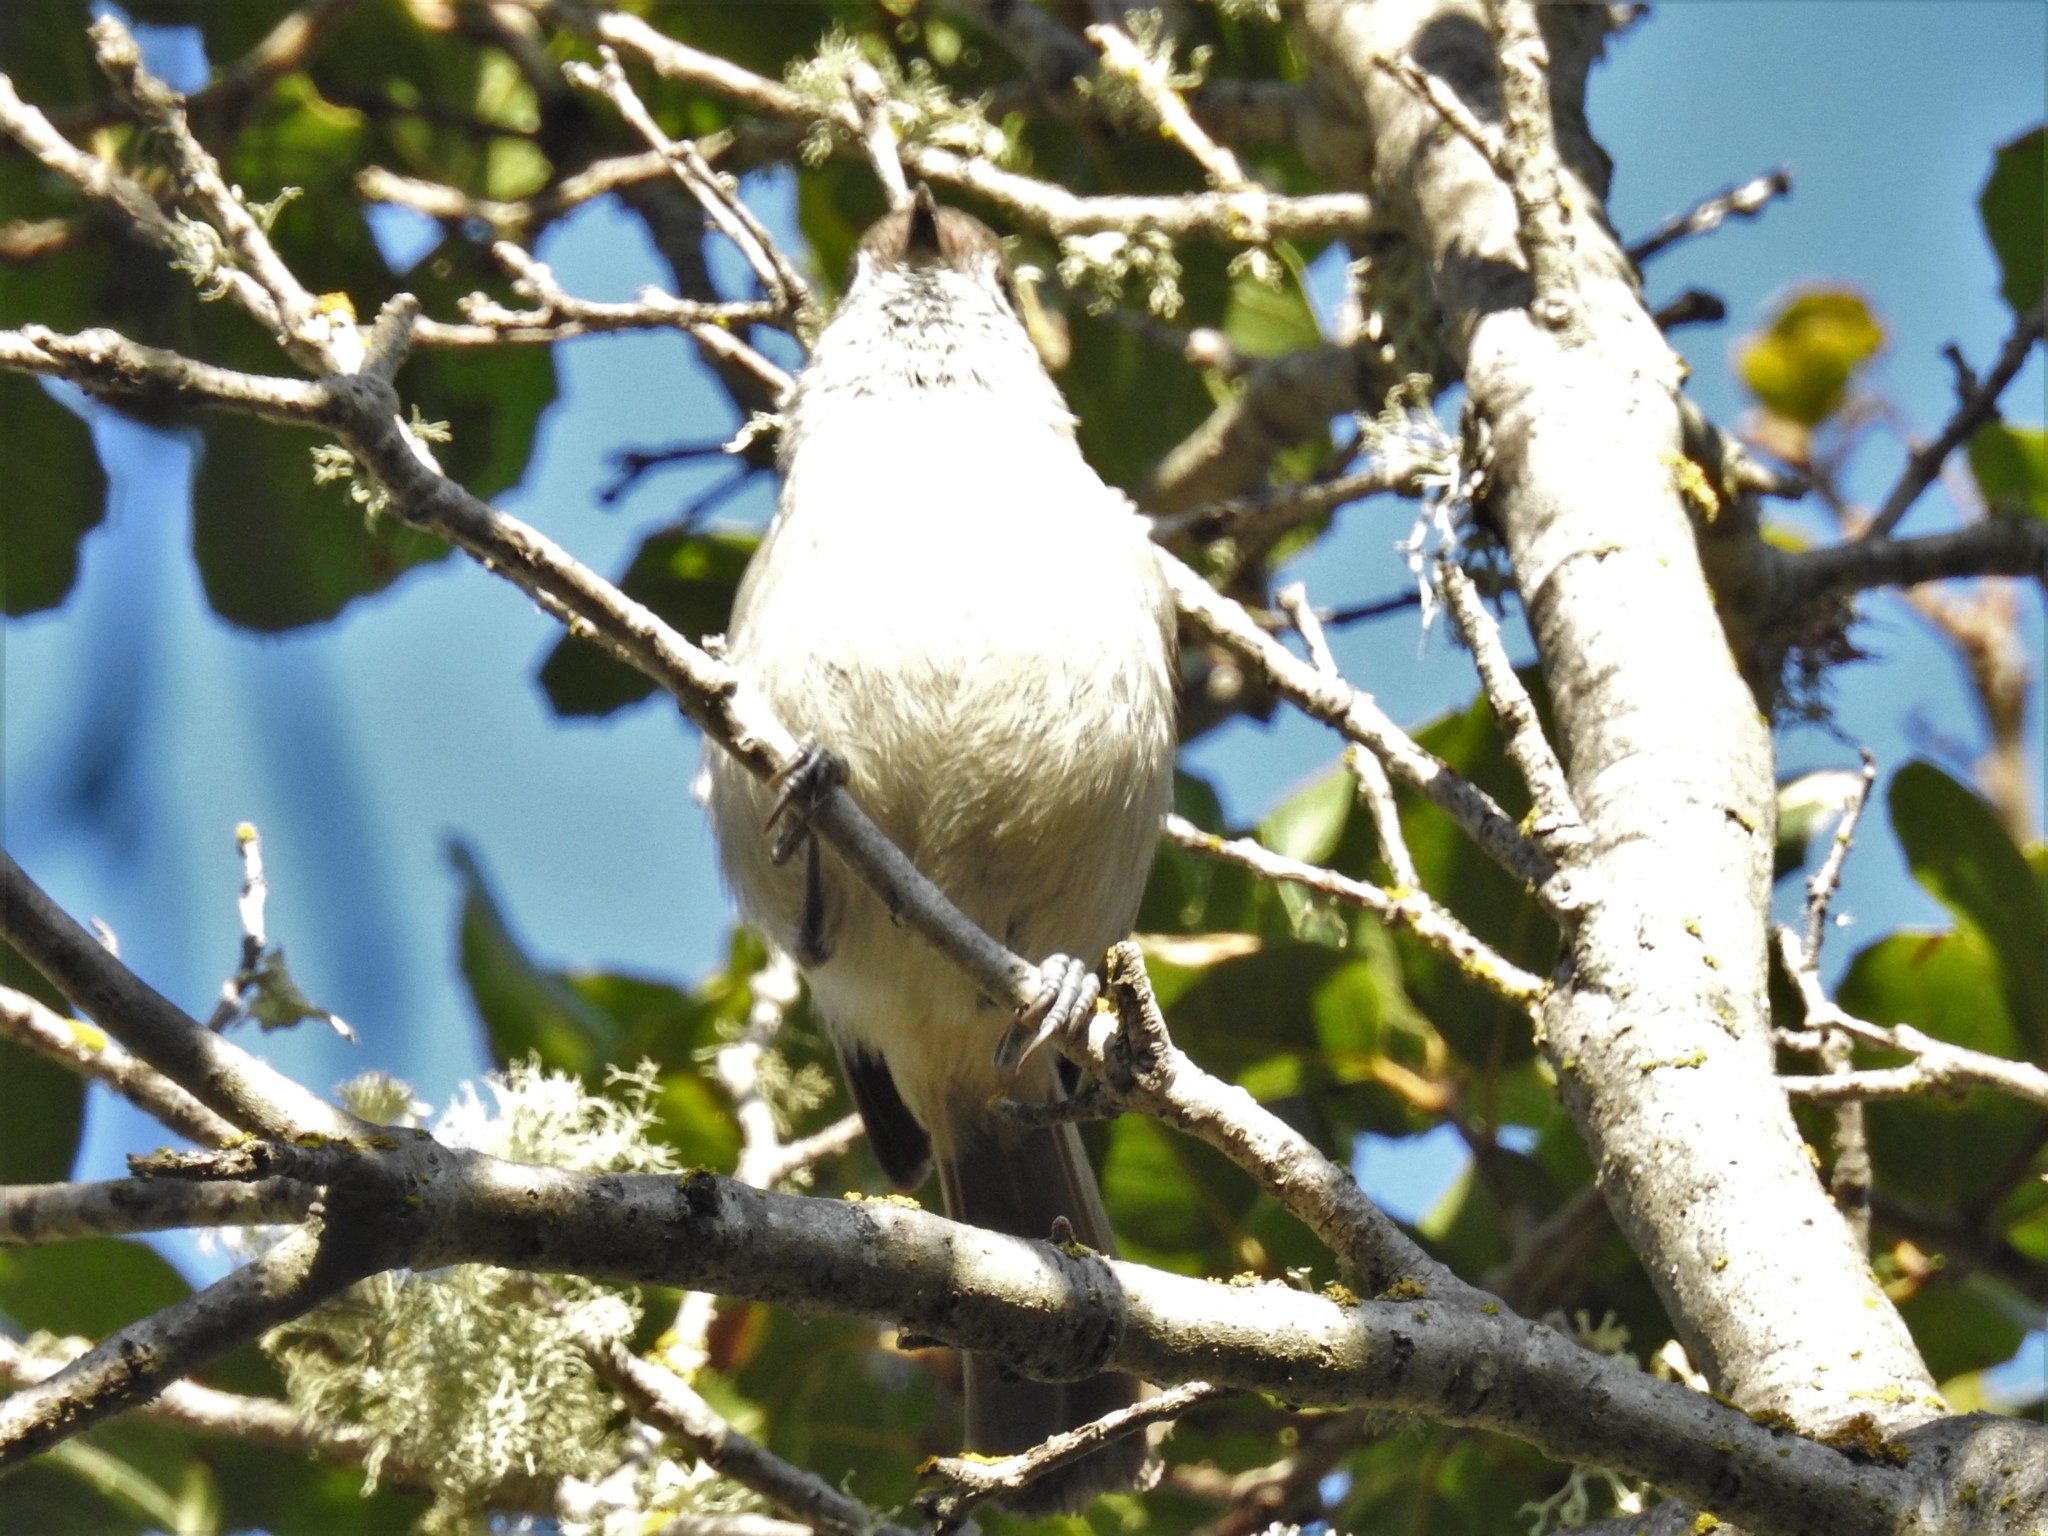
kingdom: Animalia
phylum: Chordata
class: Aves
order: Passeriformes
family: Paridae
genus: Baeolophus
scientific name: Baeolophus inornatus
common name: Oak titmouse
